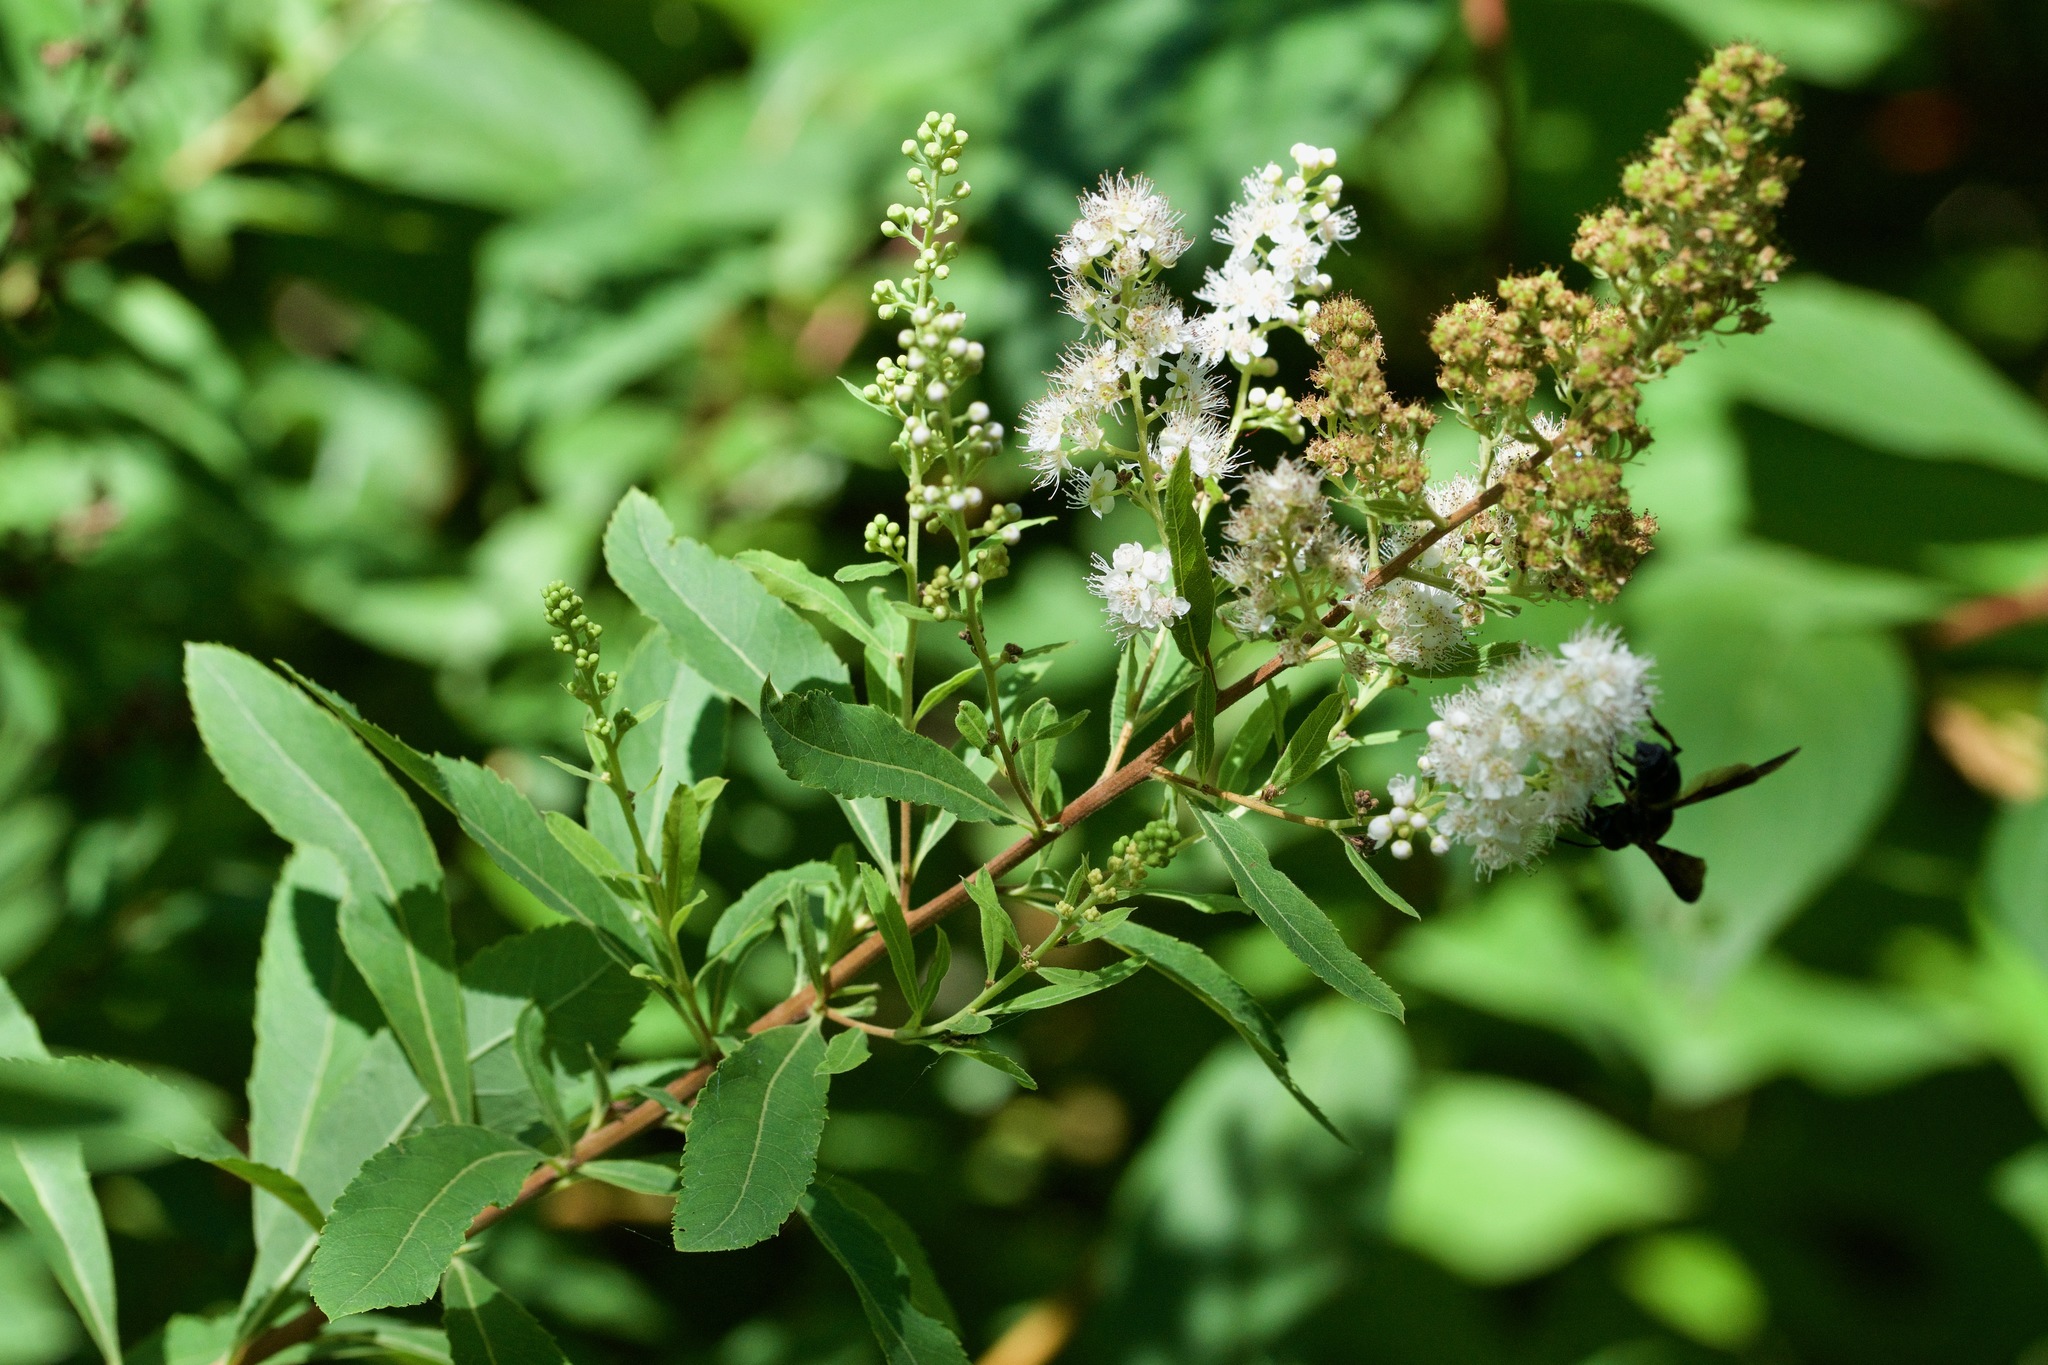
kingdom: Plantae
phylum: Tracheophyta
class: Magnoliopsida
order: Rosales
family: Rosaceae
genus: Spiraea
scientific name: Spiraea alba
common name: Pale bridewort
